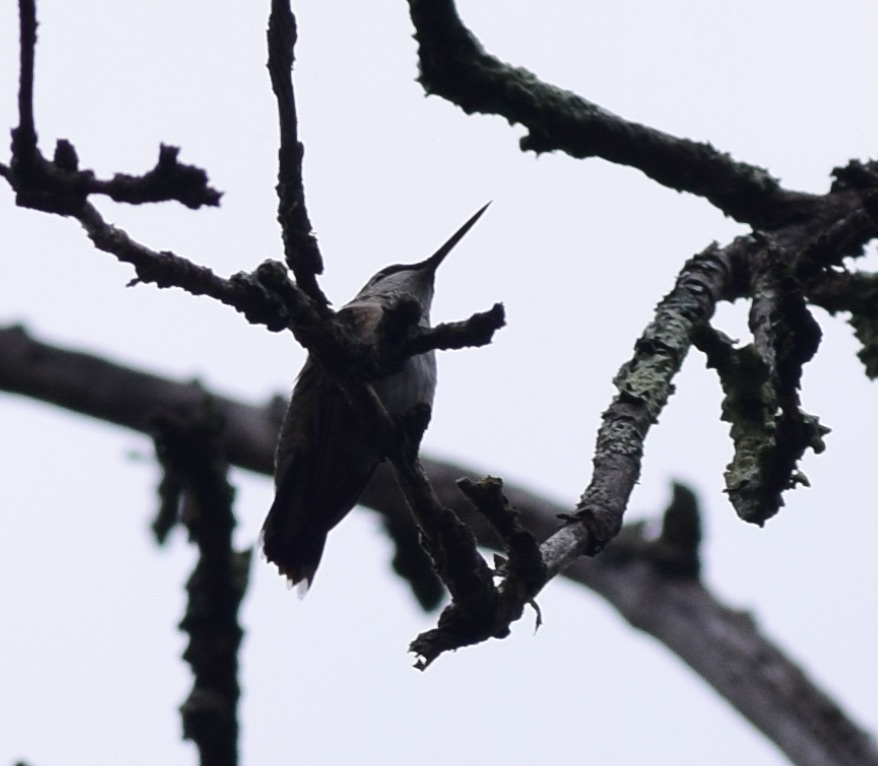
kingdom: Animalia
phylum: Chordata
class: Aves
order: Apodiformes
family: Trochilidae
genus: Archilochus
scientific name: Archilochus colubris
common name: Ruby-throated hummingbird
